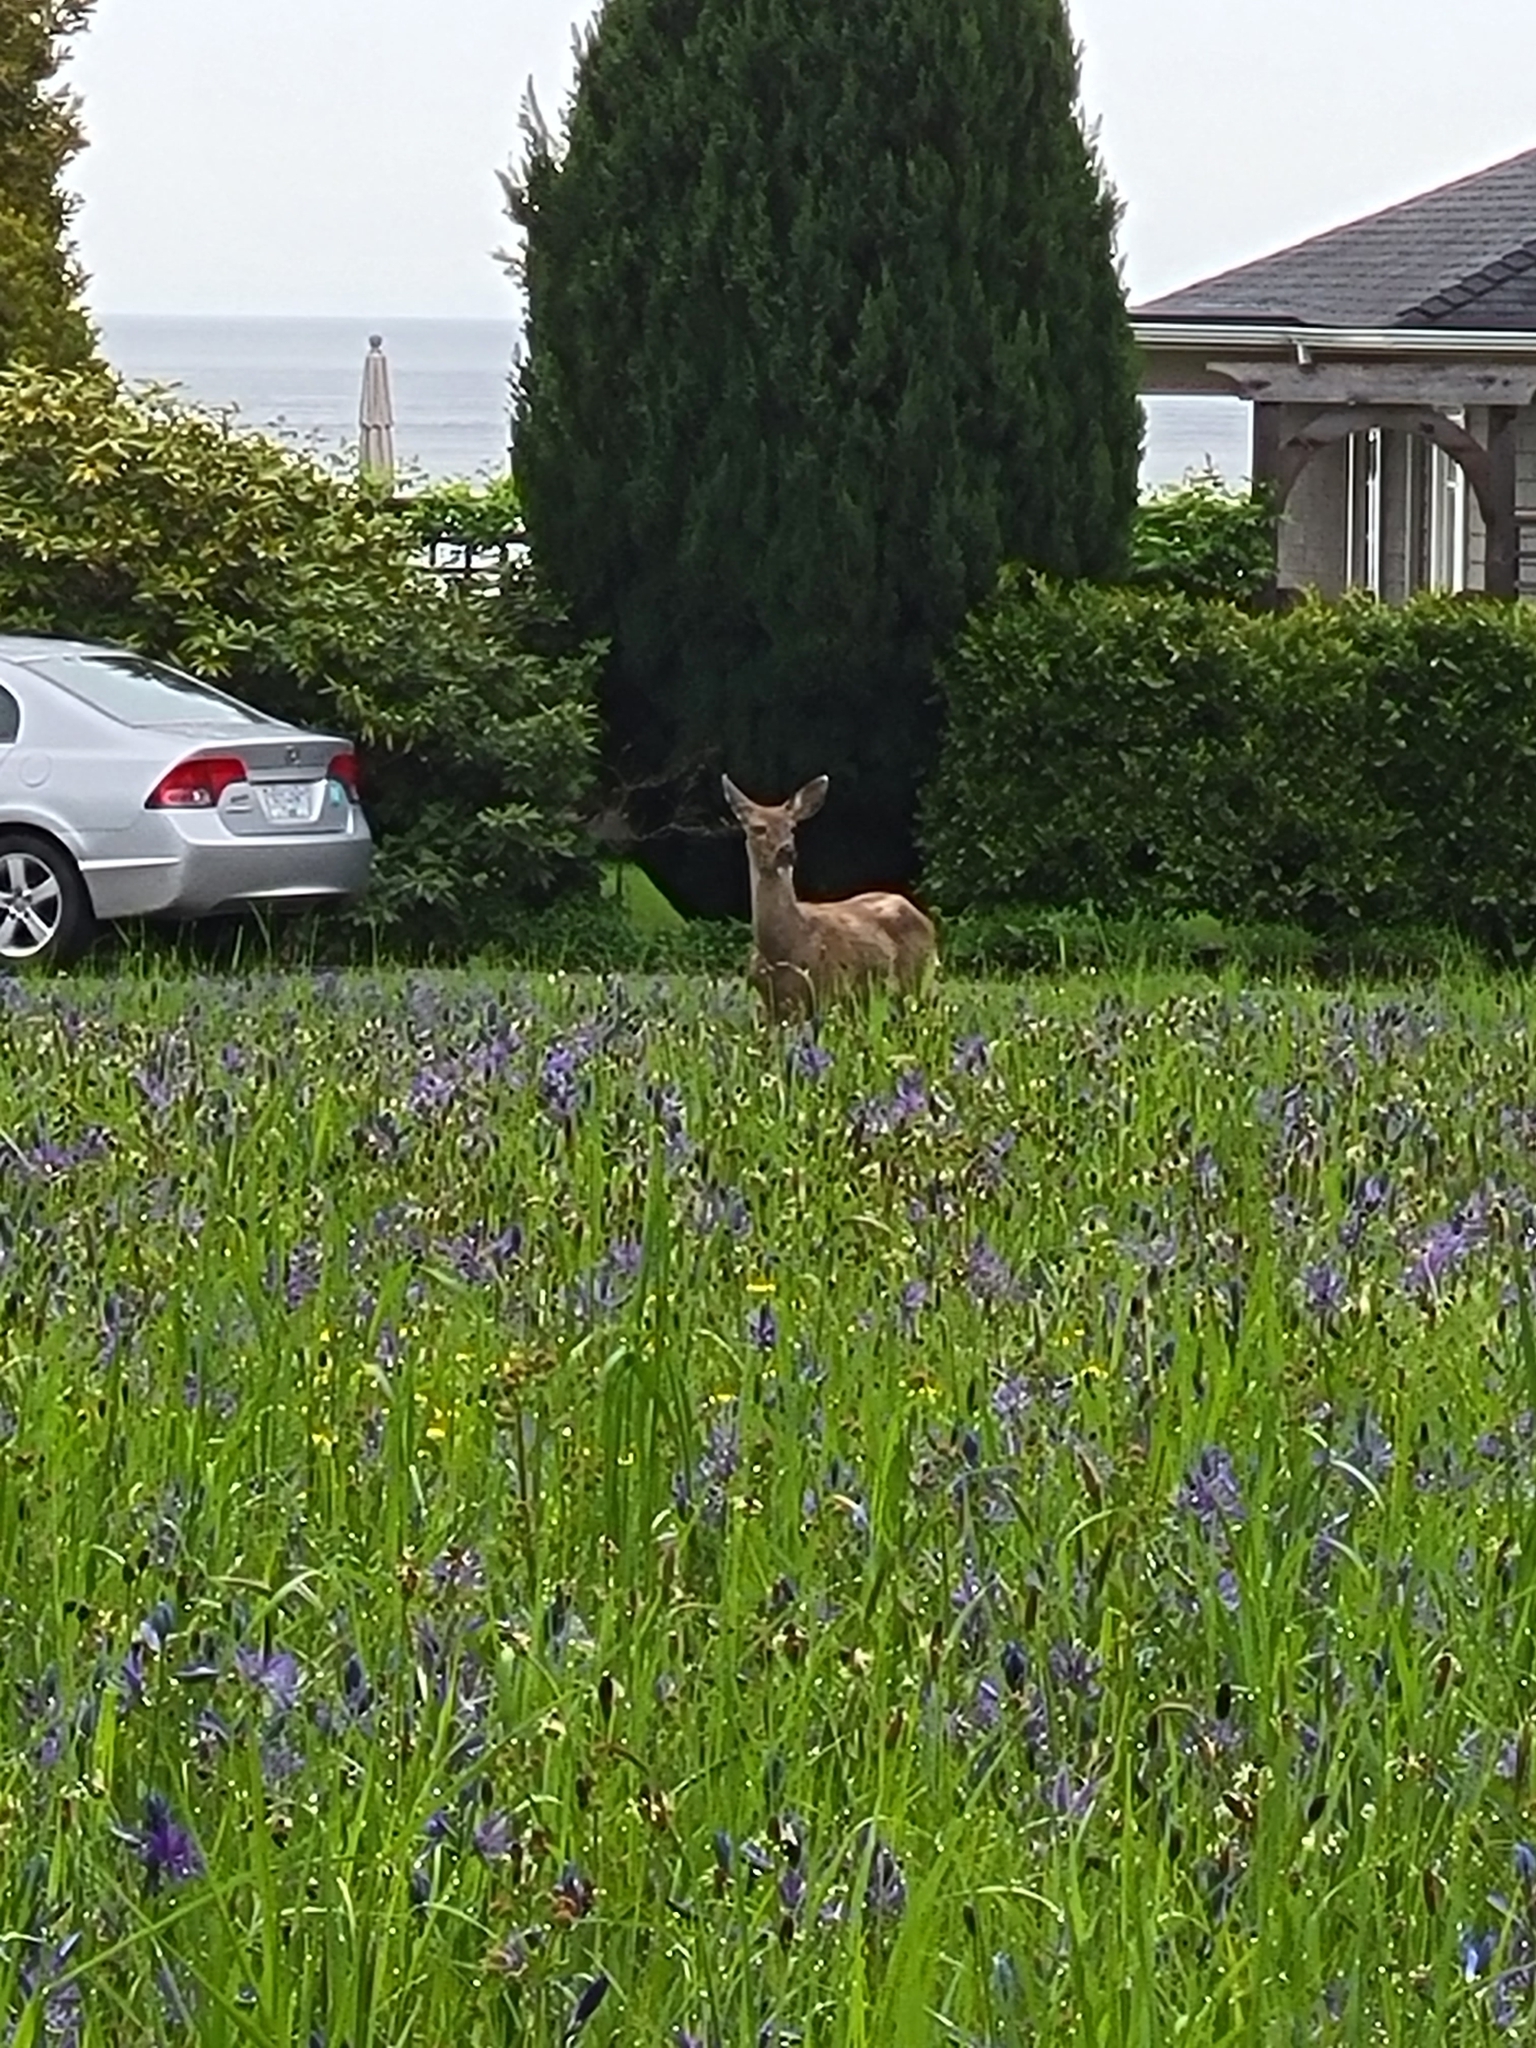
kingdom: Animalia
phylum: Chordata
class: Mammalia
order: Artiodactyla
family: Cervidae
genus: Odocoileus
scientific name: Odocoileus hemionus
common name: Mule deer
